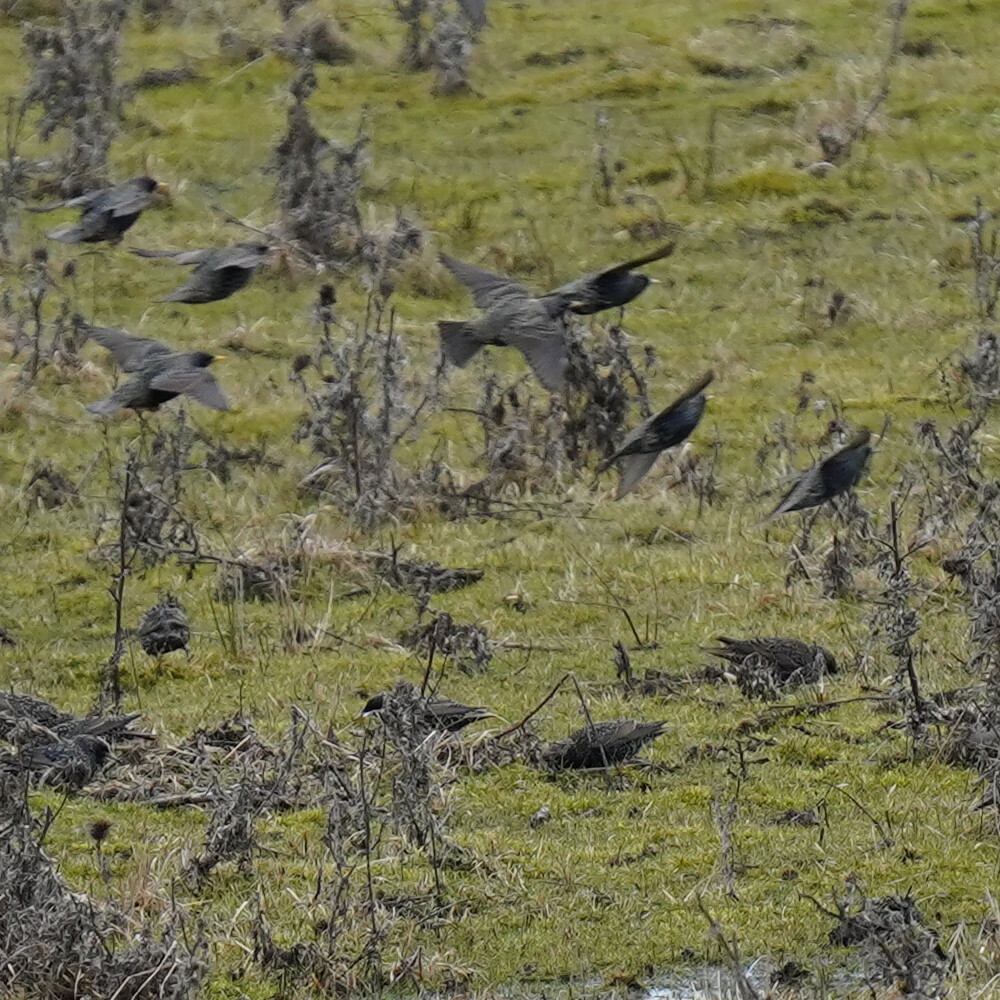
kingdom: Animalia
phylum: Chordata
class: Aves
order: Passeriformes
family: Sturnidae
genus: Sturnus
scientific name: Sturnus vulgaris
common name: Common starling
